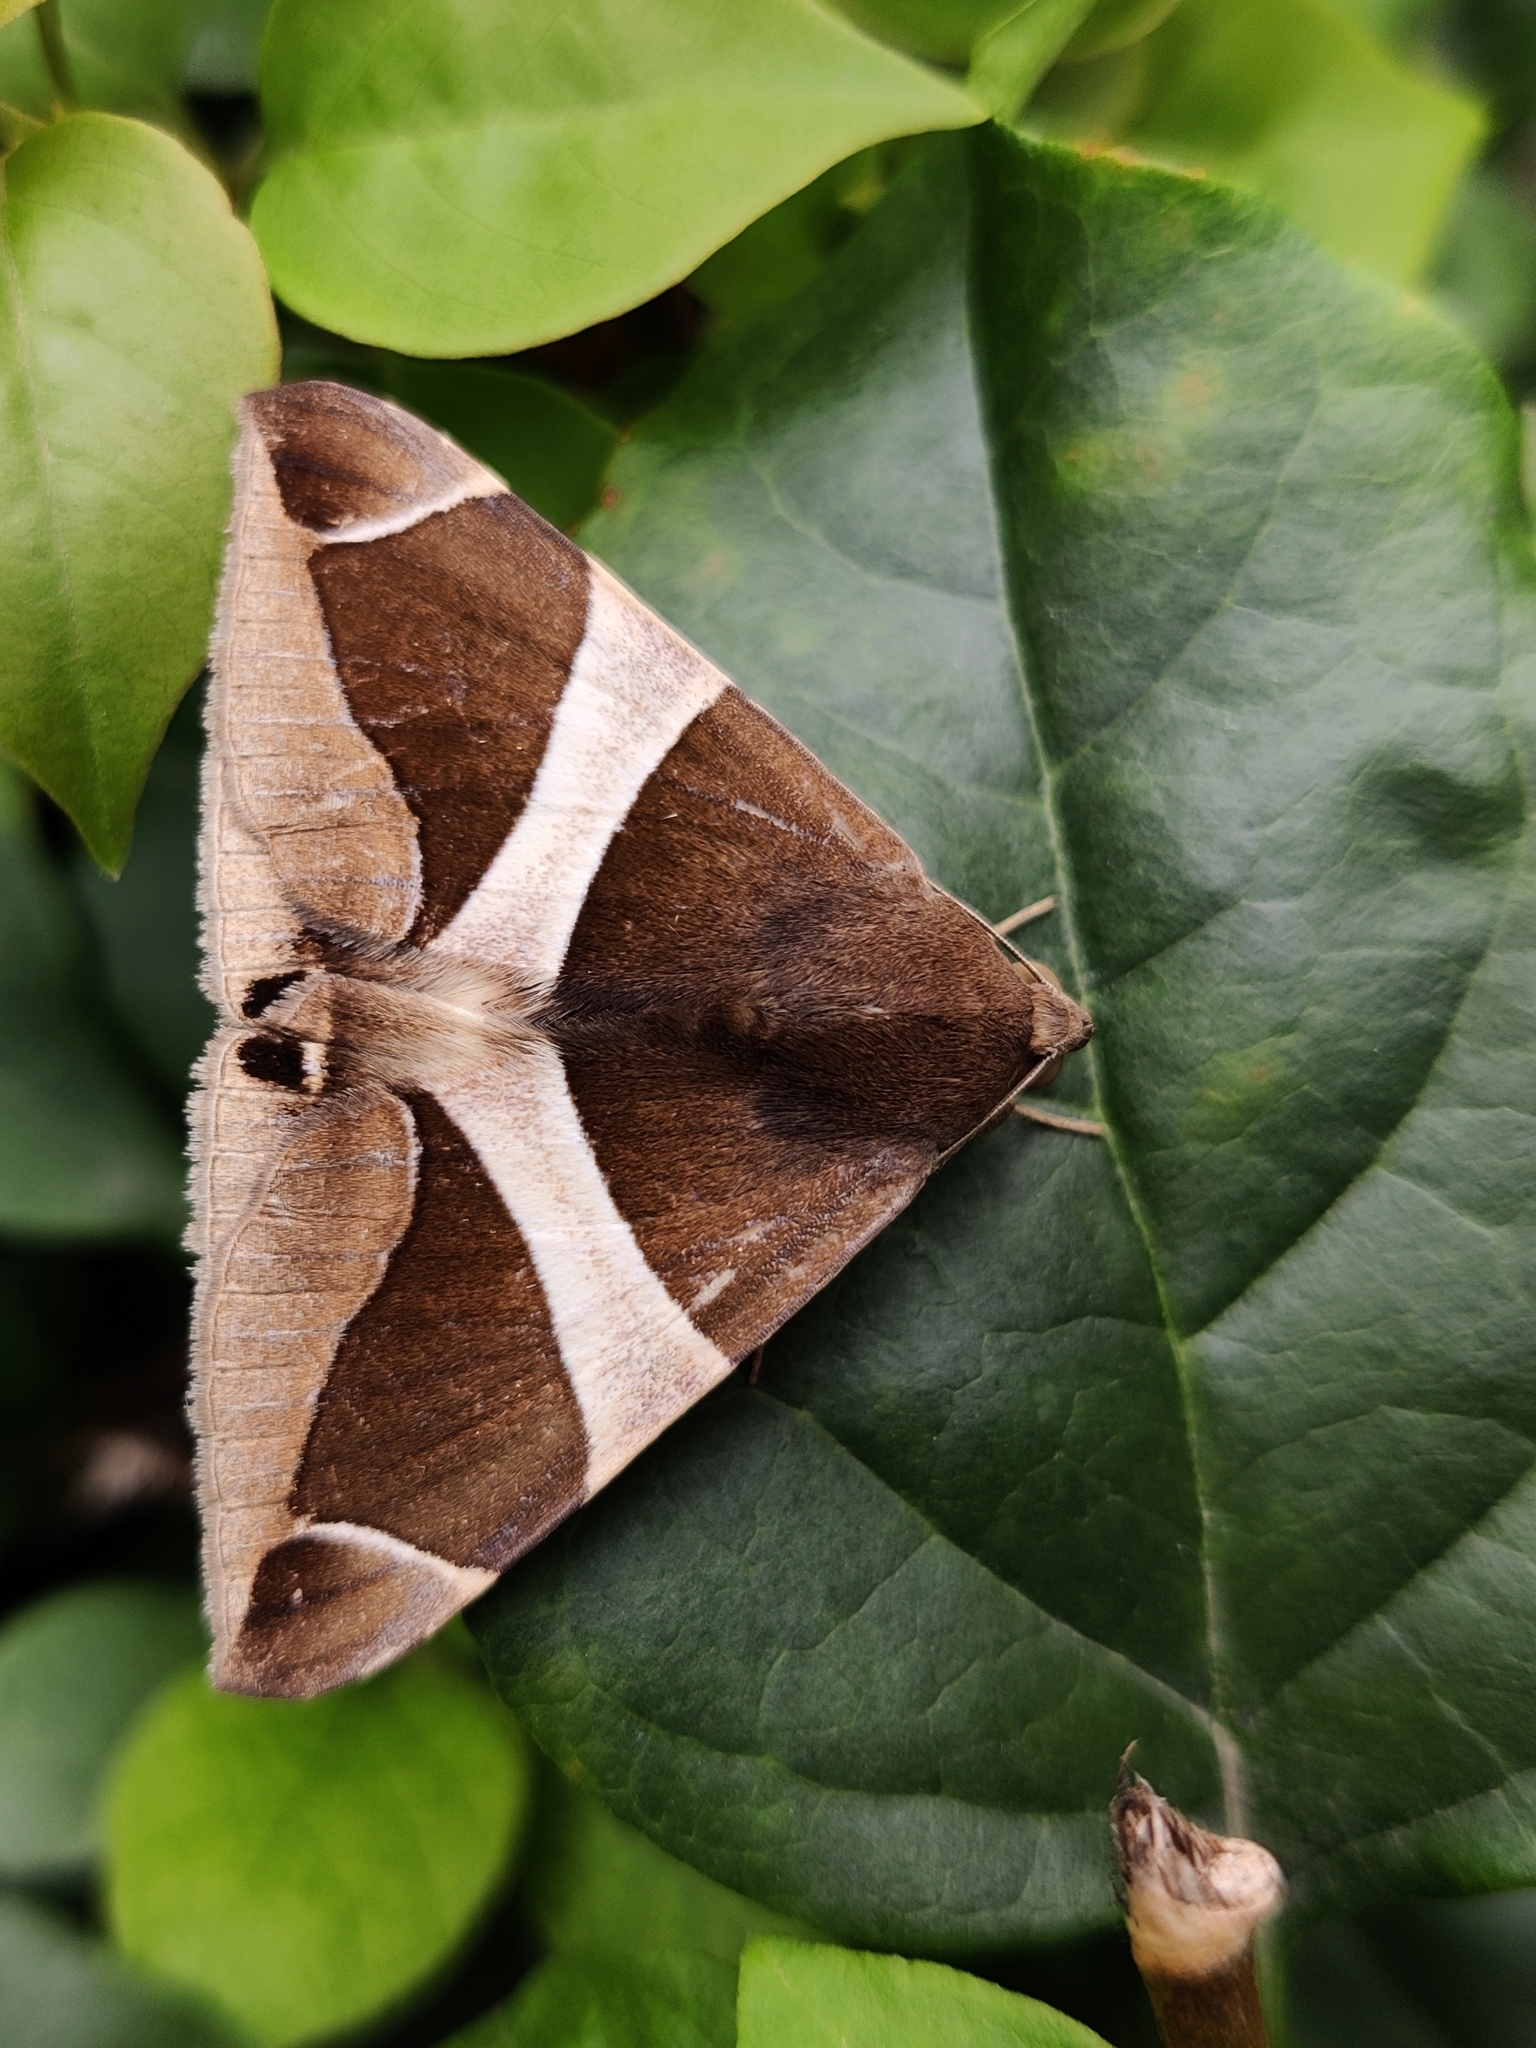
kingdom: Animalia
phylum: Arthropoda
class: Insecta
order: Lepidoptera
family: Erebidae
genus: Bastilla
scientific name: Bastilla crameri
